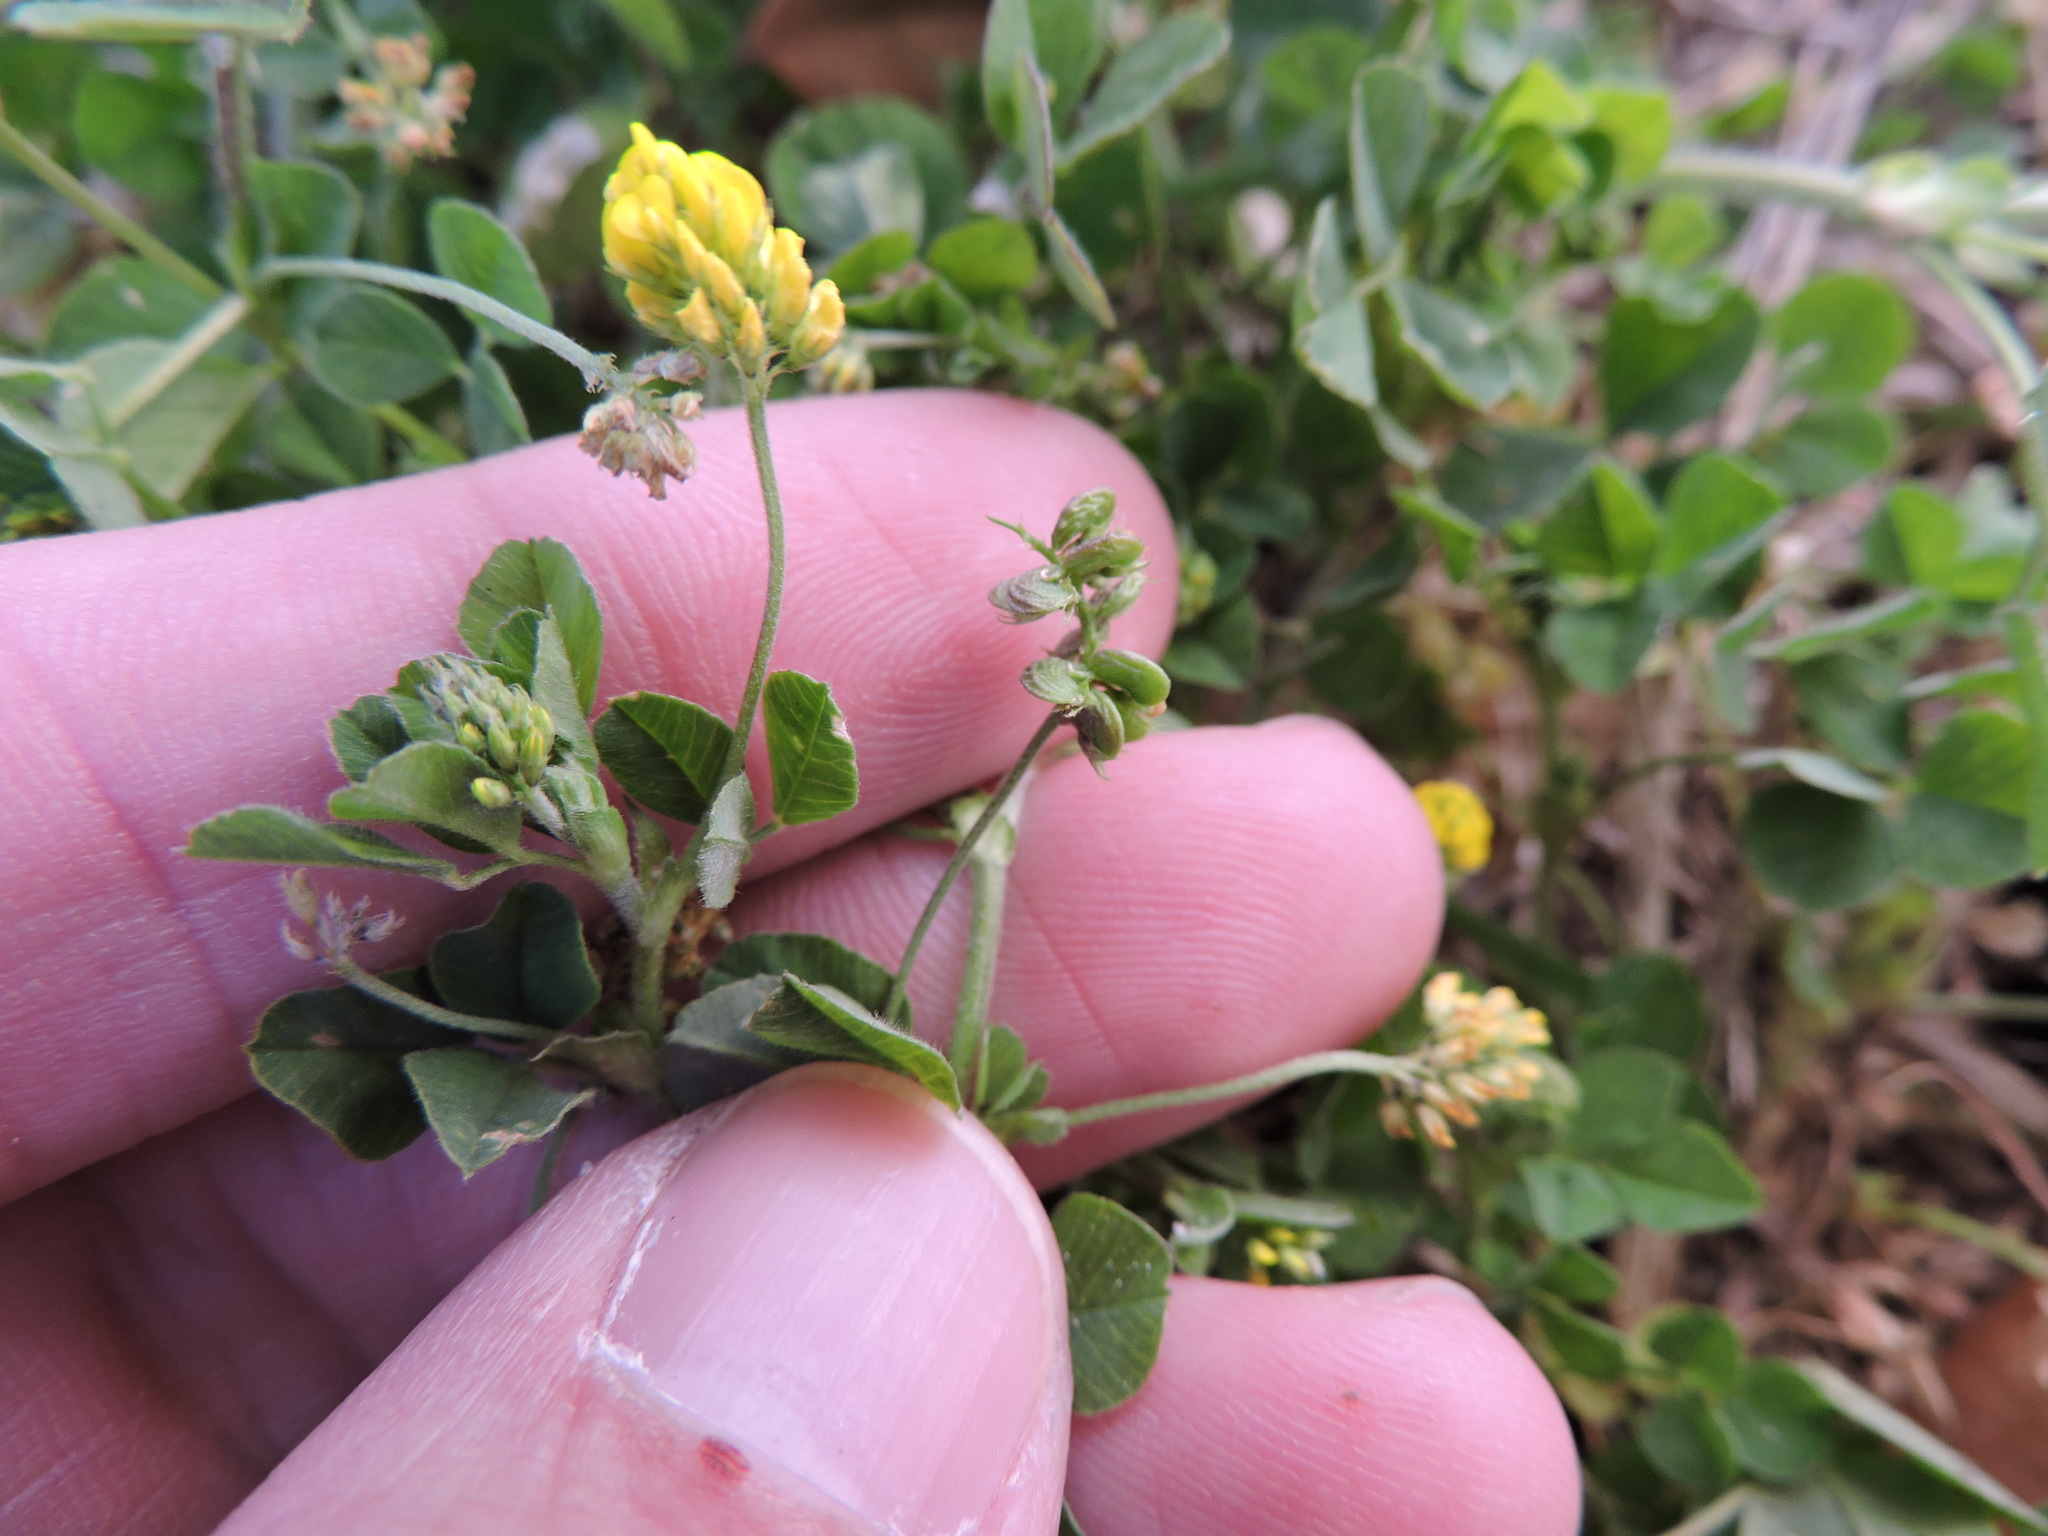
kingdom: Plantae
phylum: Tracheophyta
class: Magnoliopsida
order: Fabales
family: Fabaceae
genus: Medicago
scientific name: Medicago lupulina
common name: Black medick
